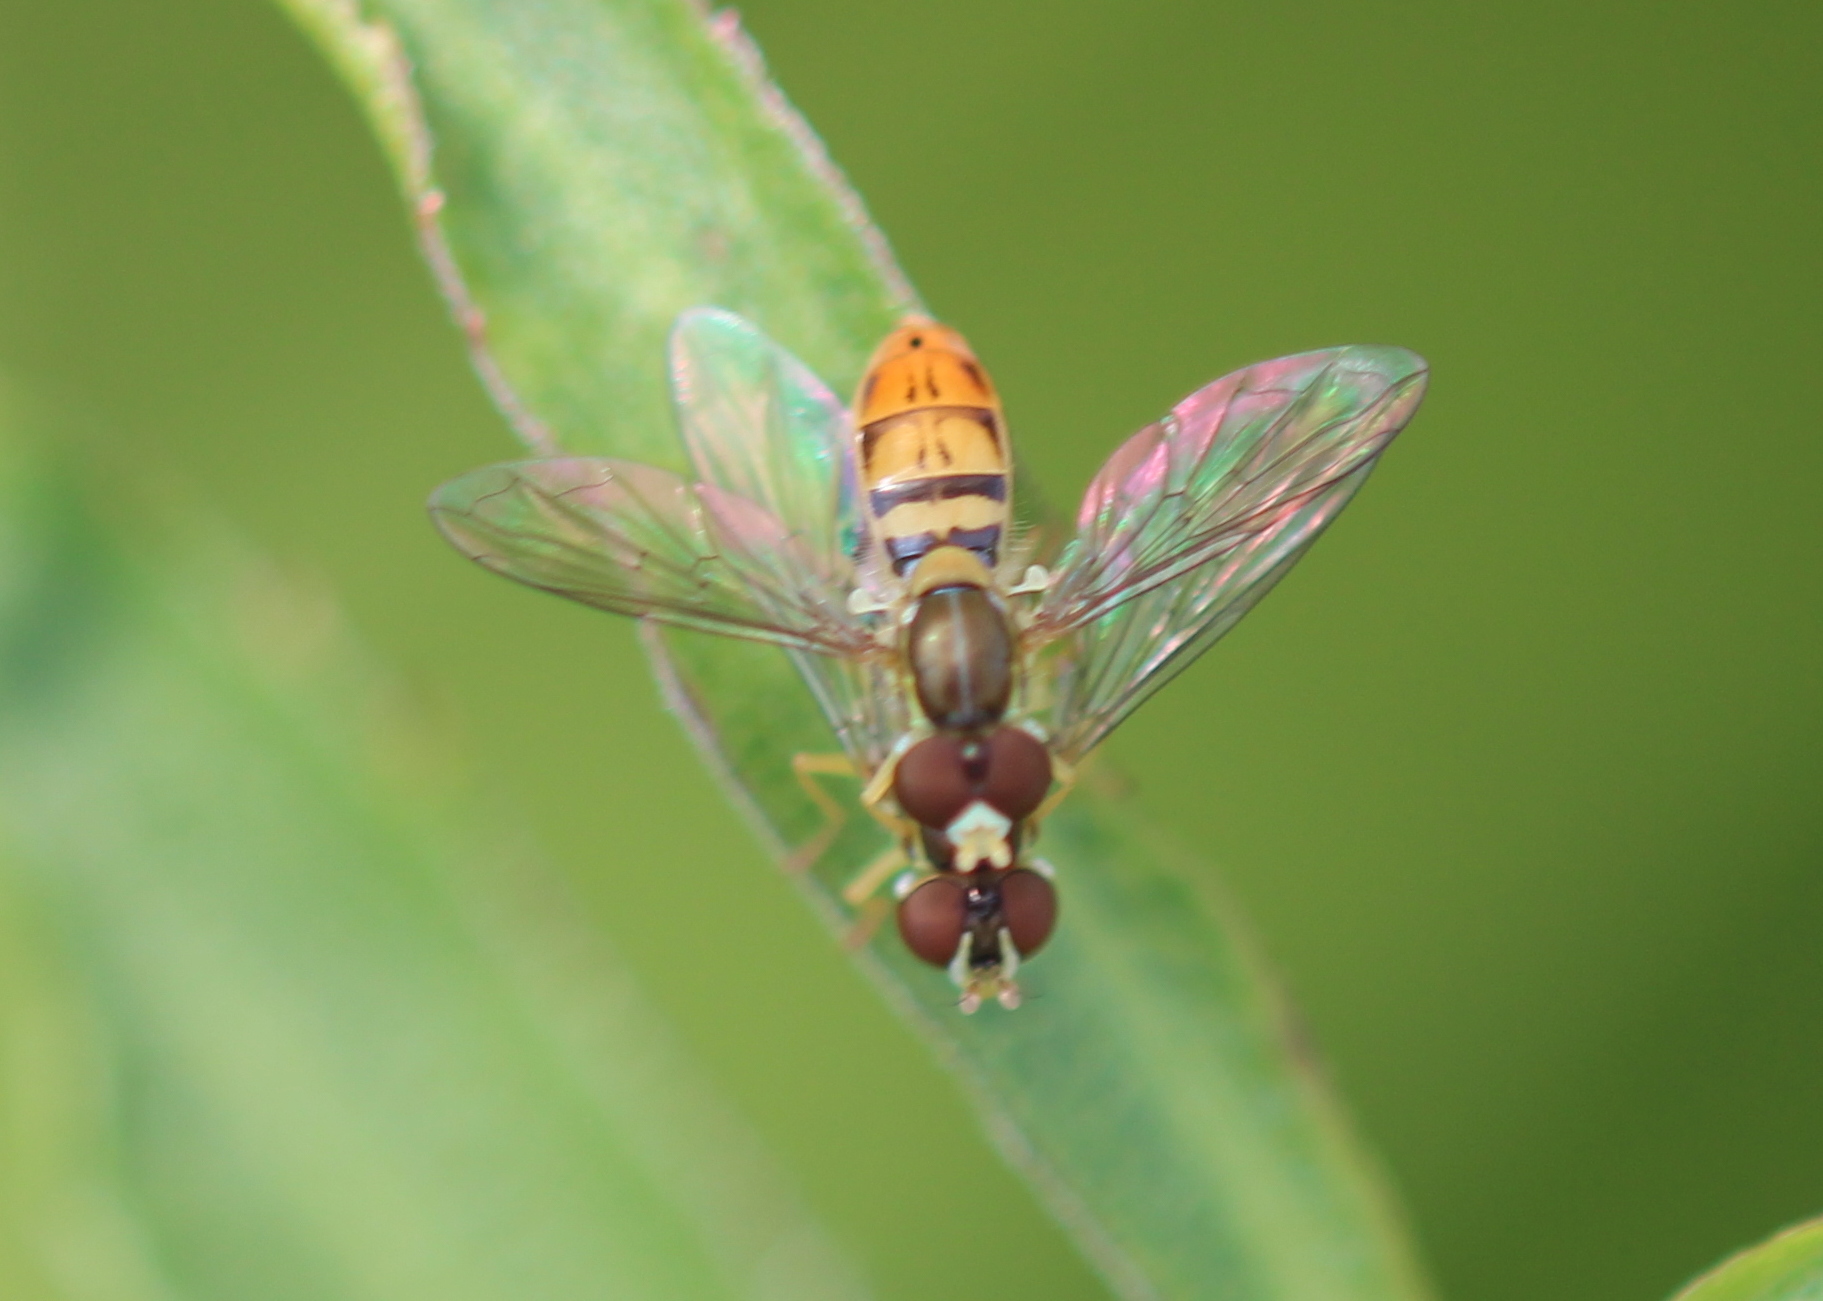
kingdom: Animalia
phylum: Arthropoda
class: Insecta
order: Diptera
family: Syrphidae
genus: Toxomerus
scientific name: Toxomerus marginatus
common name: Syrphid fly
